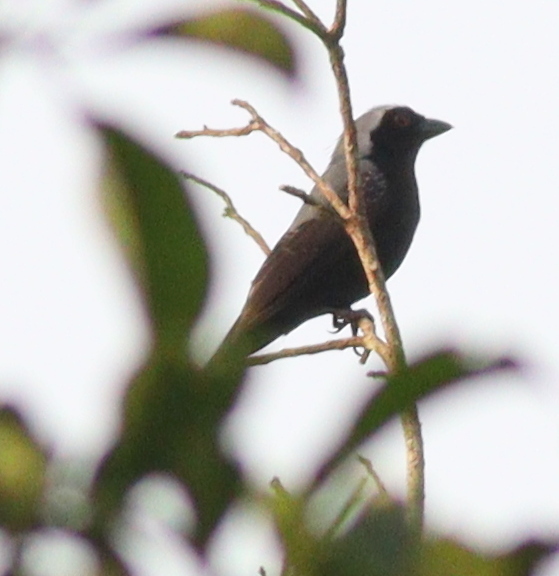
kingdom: Animalia
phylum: Chordata
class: Aves
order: Passeriformes
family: Estrildidae
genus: Nigrita
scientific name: Nigrita canicapillus
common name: Grey-headed nigrita
